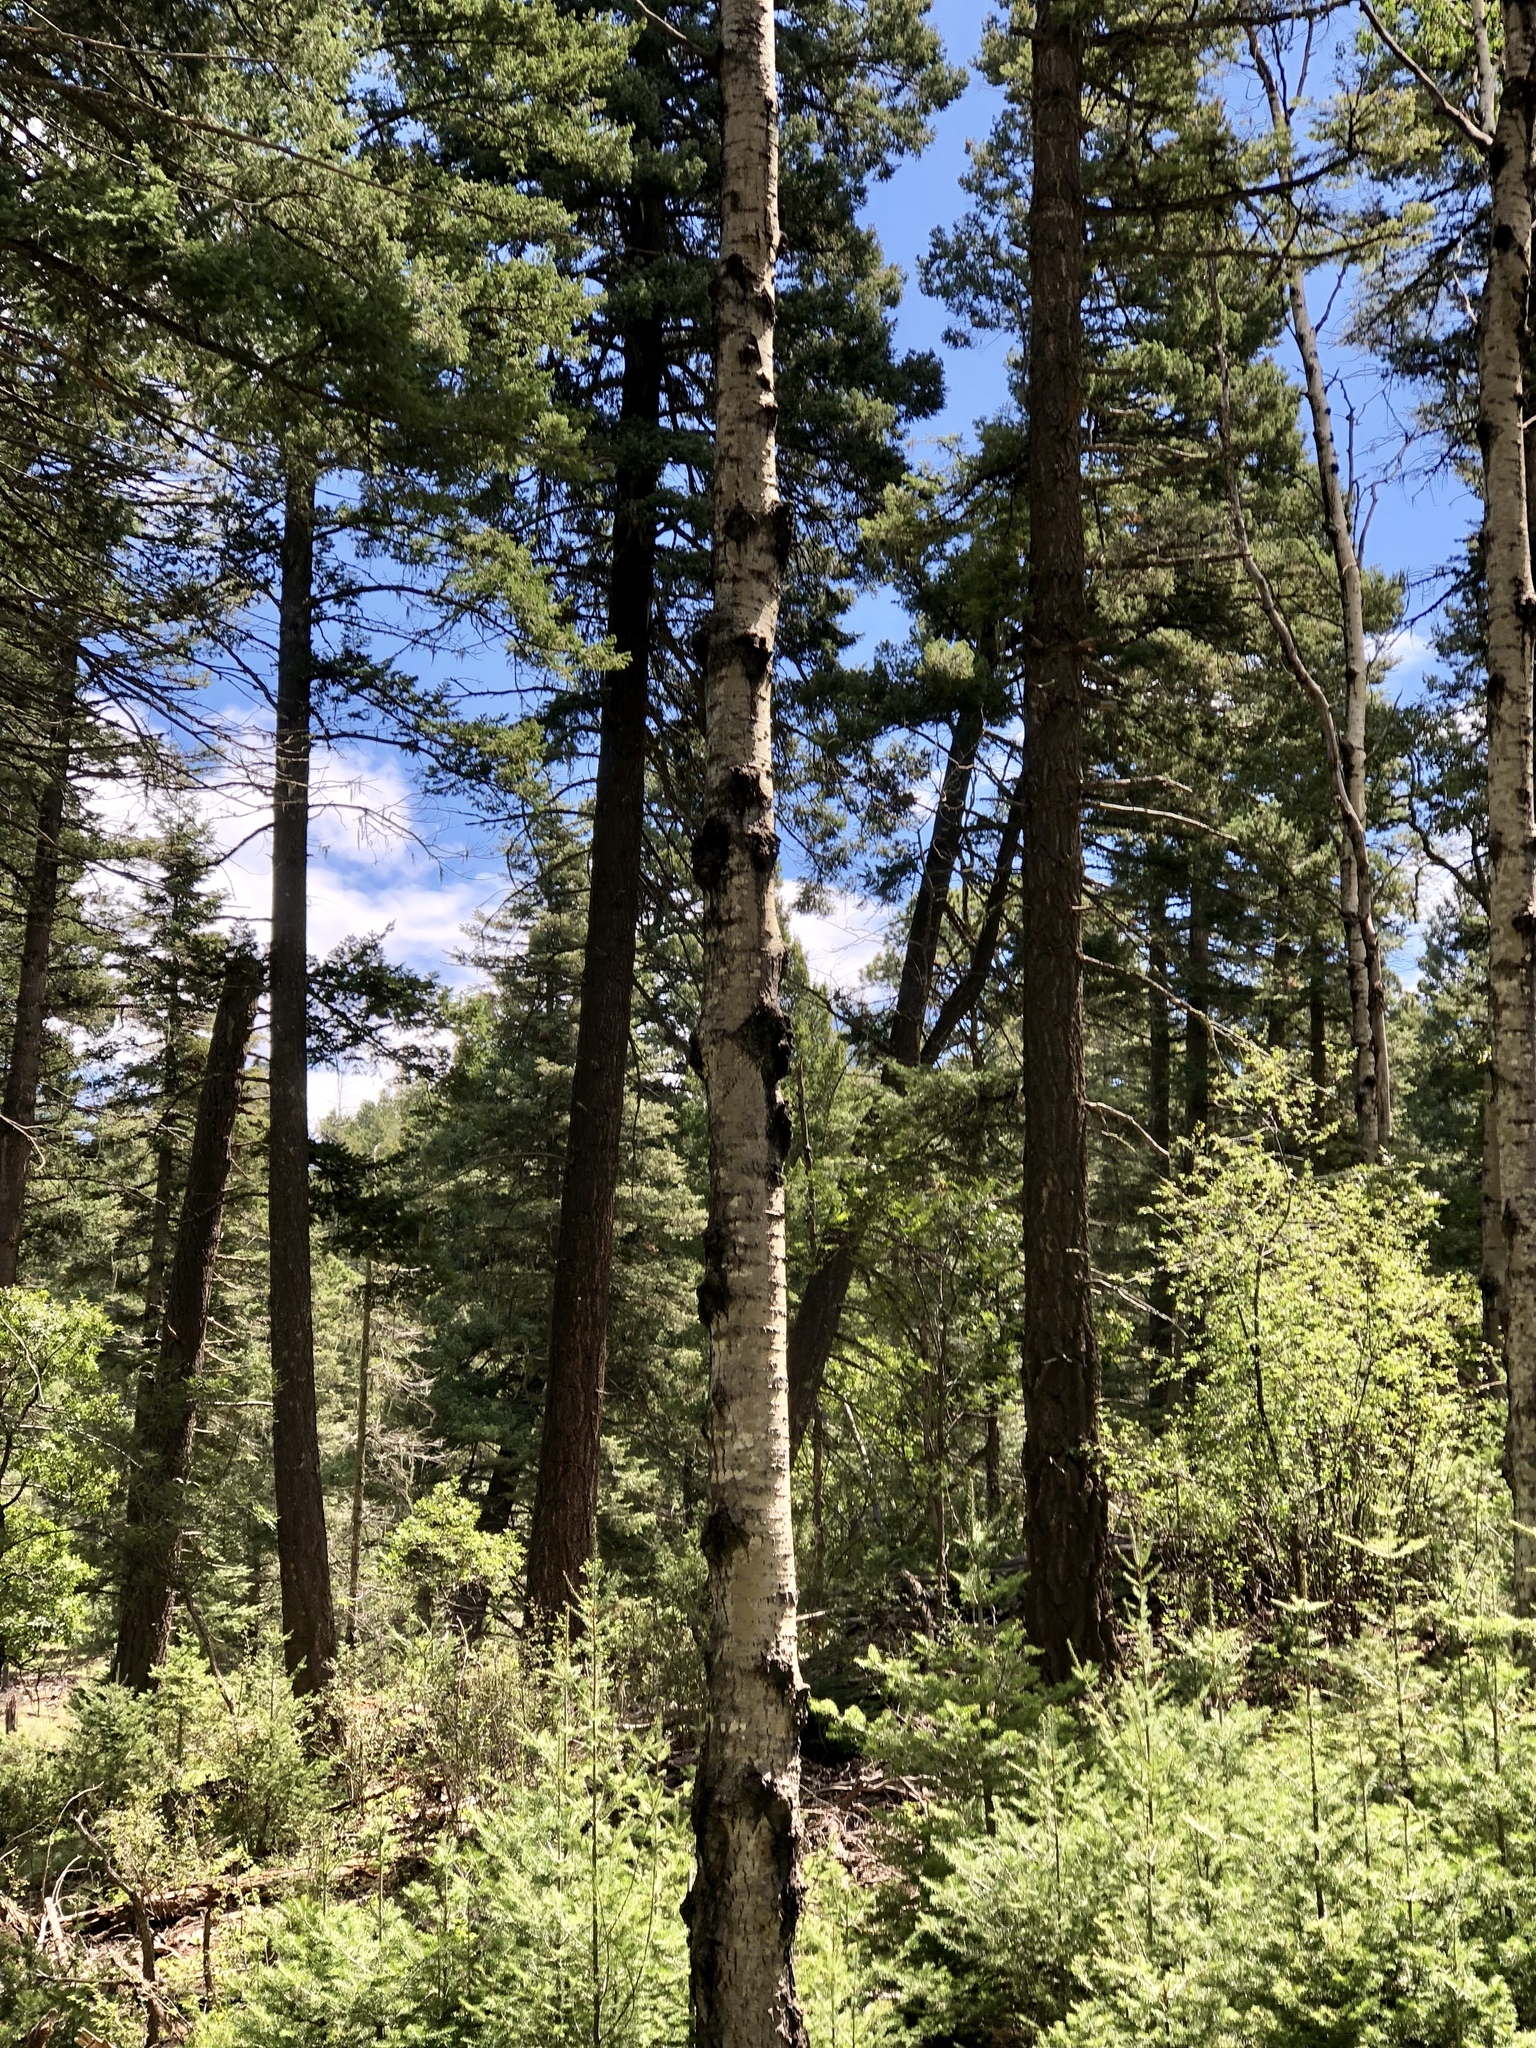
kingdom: Plantae
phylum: Tracheophyta
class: Magnoliopsida
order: Malpighiales
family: Salicaceae
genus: Populus
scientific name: Populus tremuloides
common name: Quaking aspen
